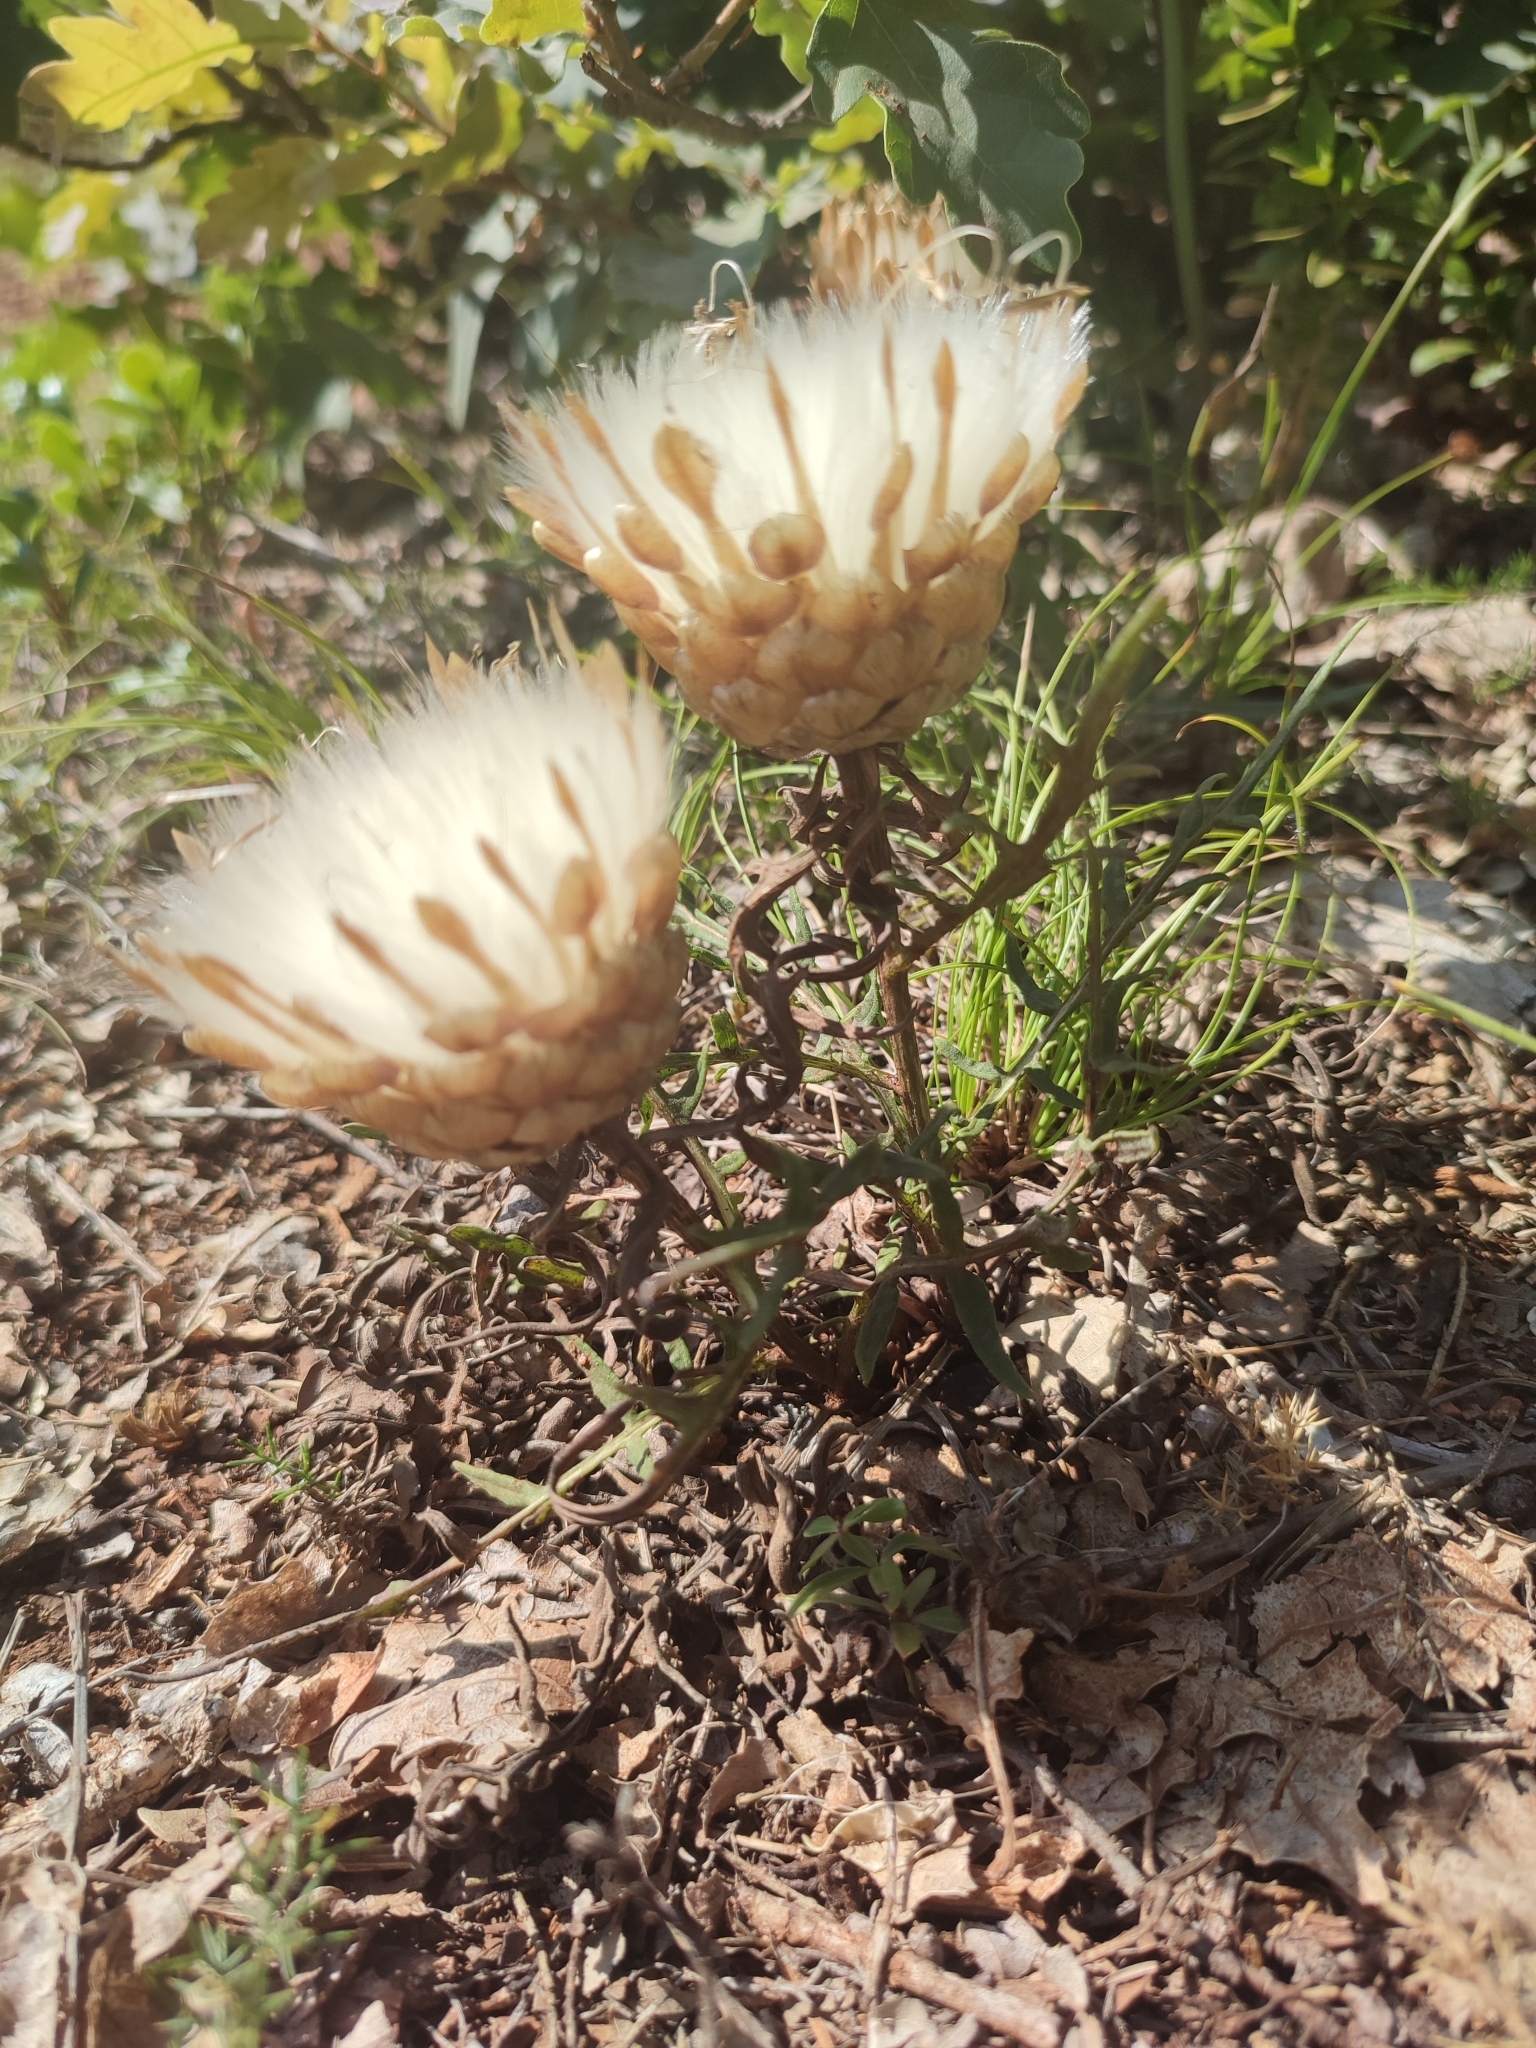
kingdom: Plantae
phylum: Tracheophyta
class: Magnoliopsida
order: Asterales
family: Asteraceae
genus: Leuzea
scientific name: Leuzea conifera
